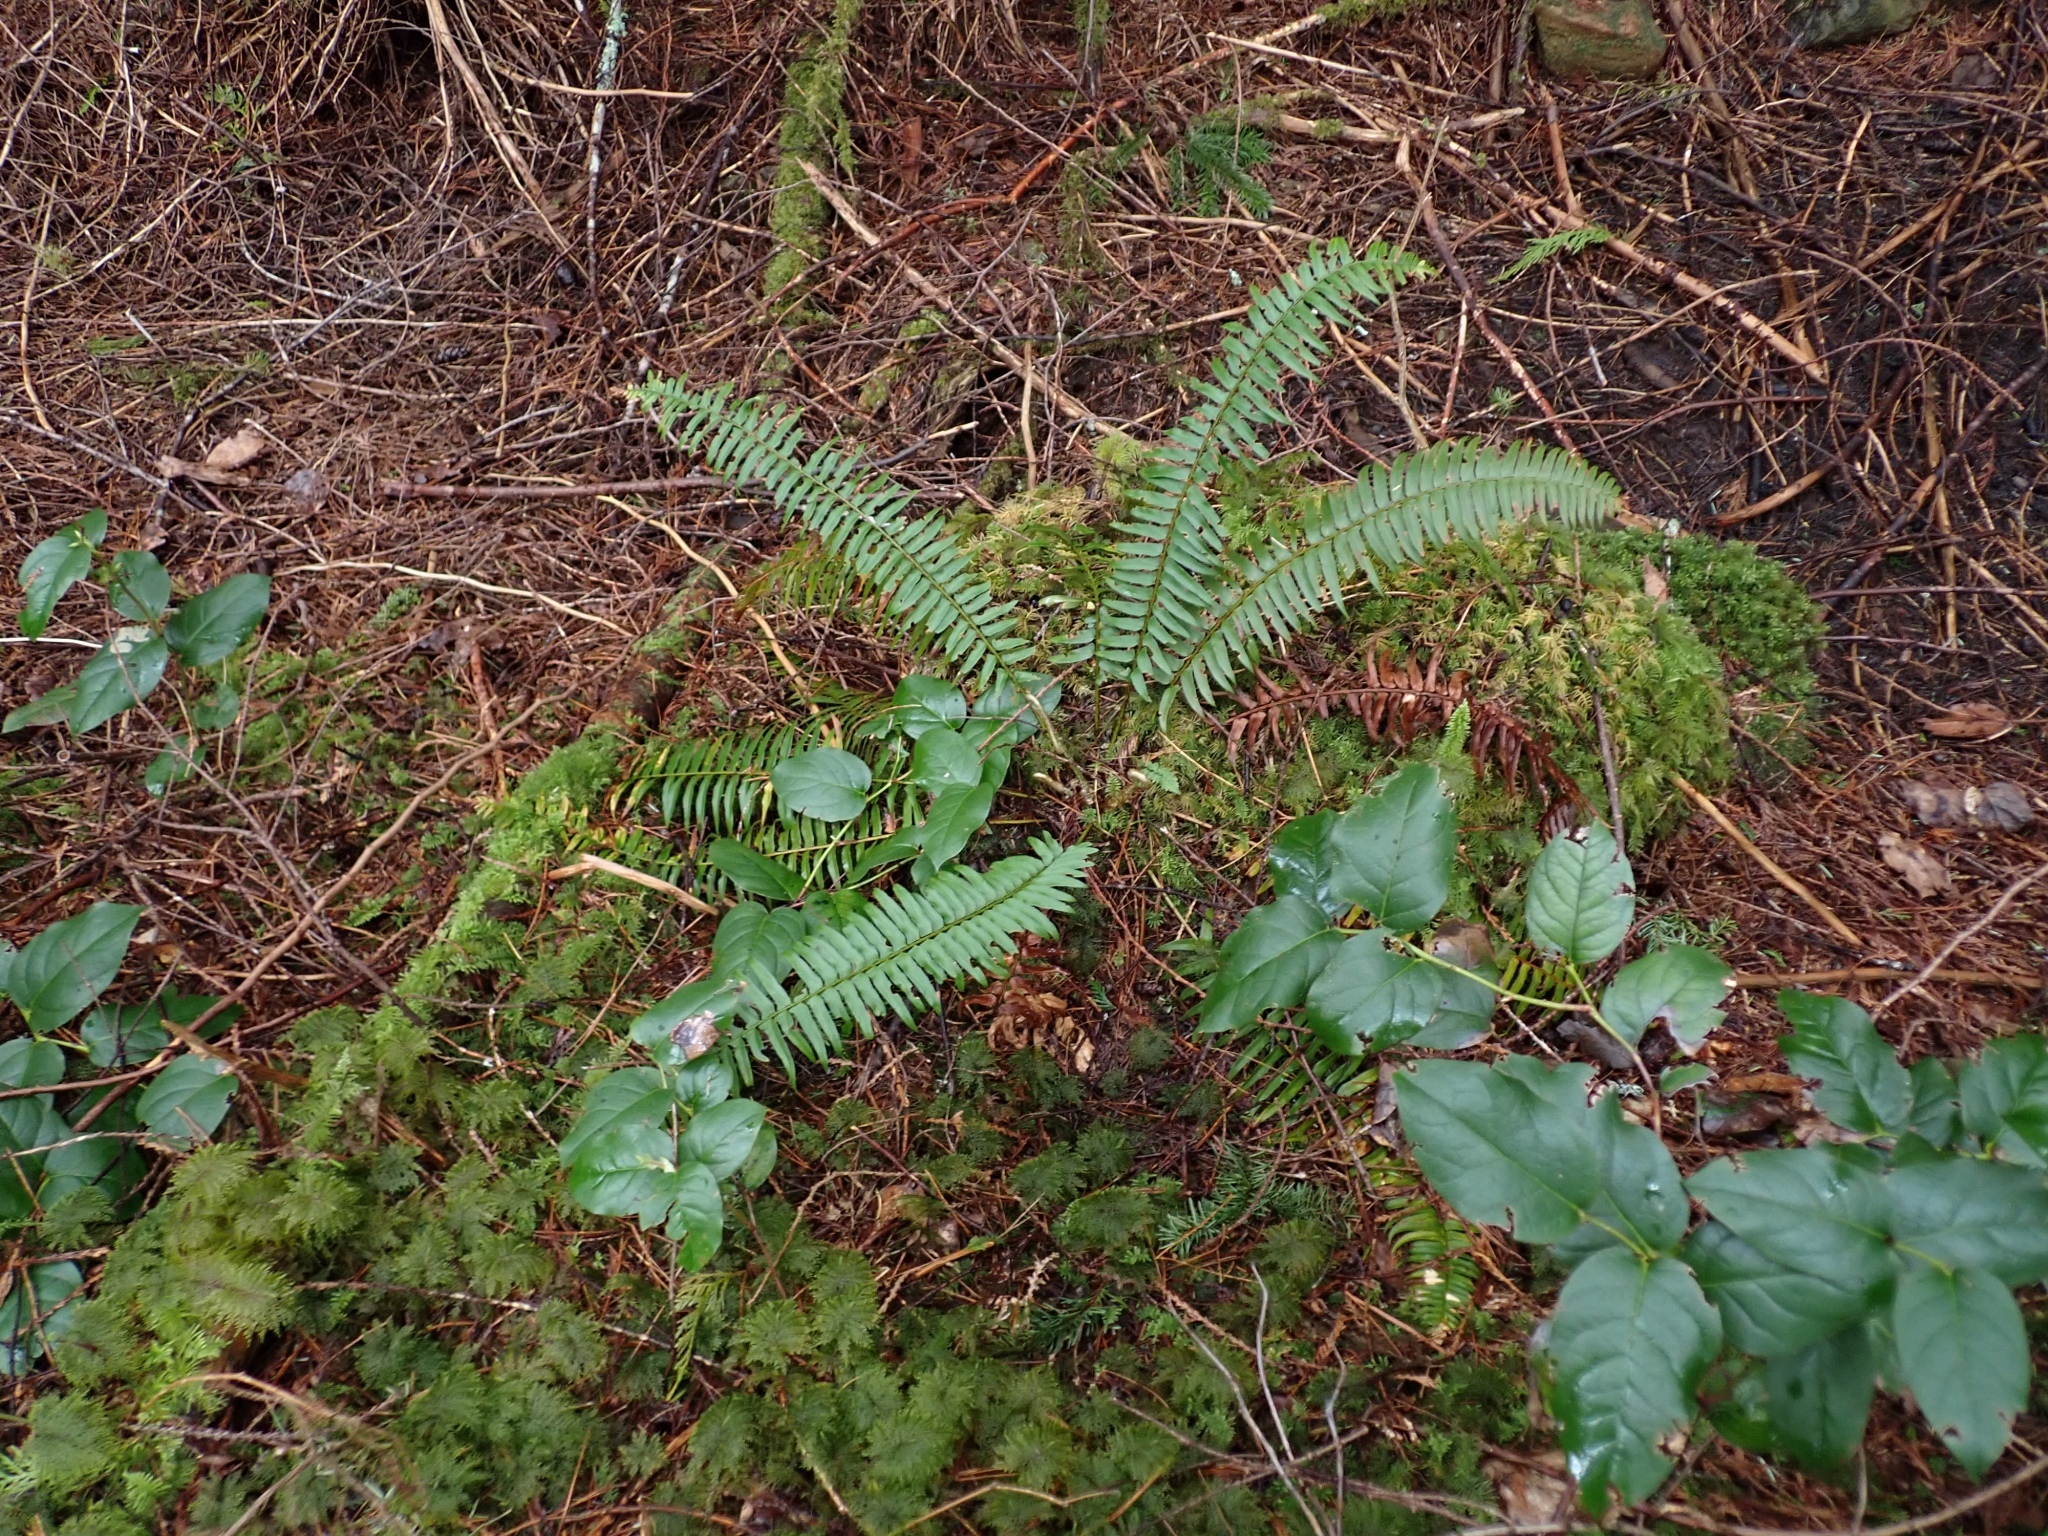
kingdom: Plantae
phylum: Tracheophyta
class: Polypodiopsida
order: Polypodiales
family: Dryopteridaceae
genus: Polystichum
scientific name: Polystichum munitum
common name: Western sword-fern
